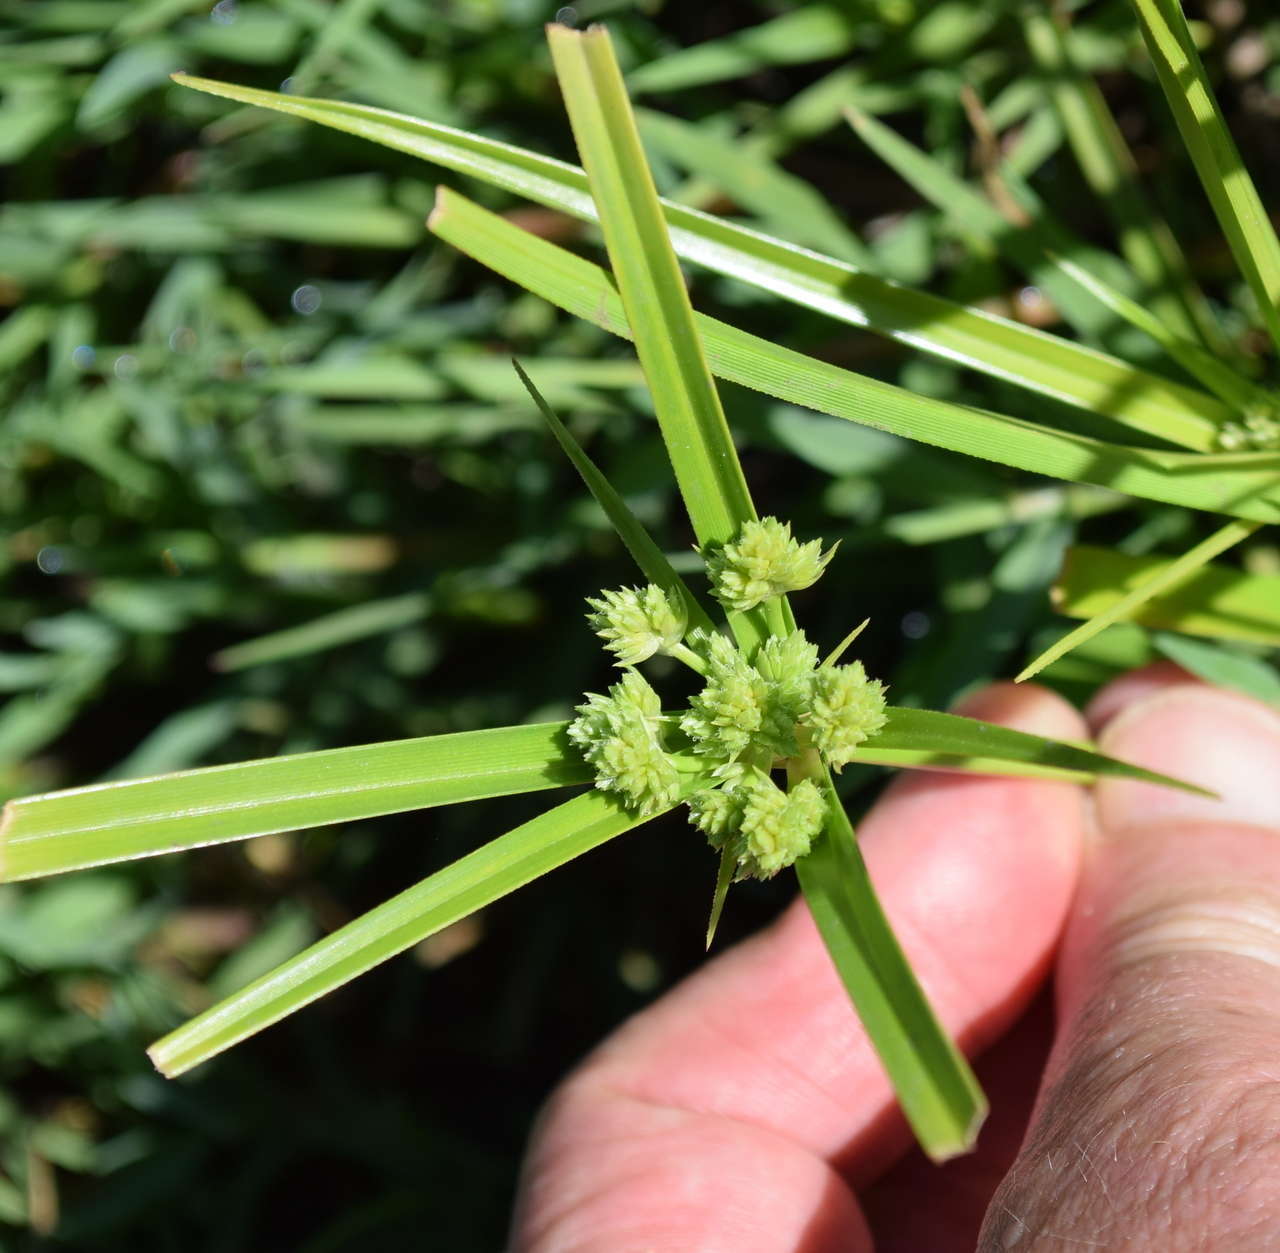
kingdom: Plantae
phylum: Tracheophyta
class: Liliopsida
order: Poales
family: Cyperaceae
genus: Cyperus
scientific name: Cyperus eragrostis
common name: Tall flatsedge
